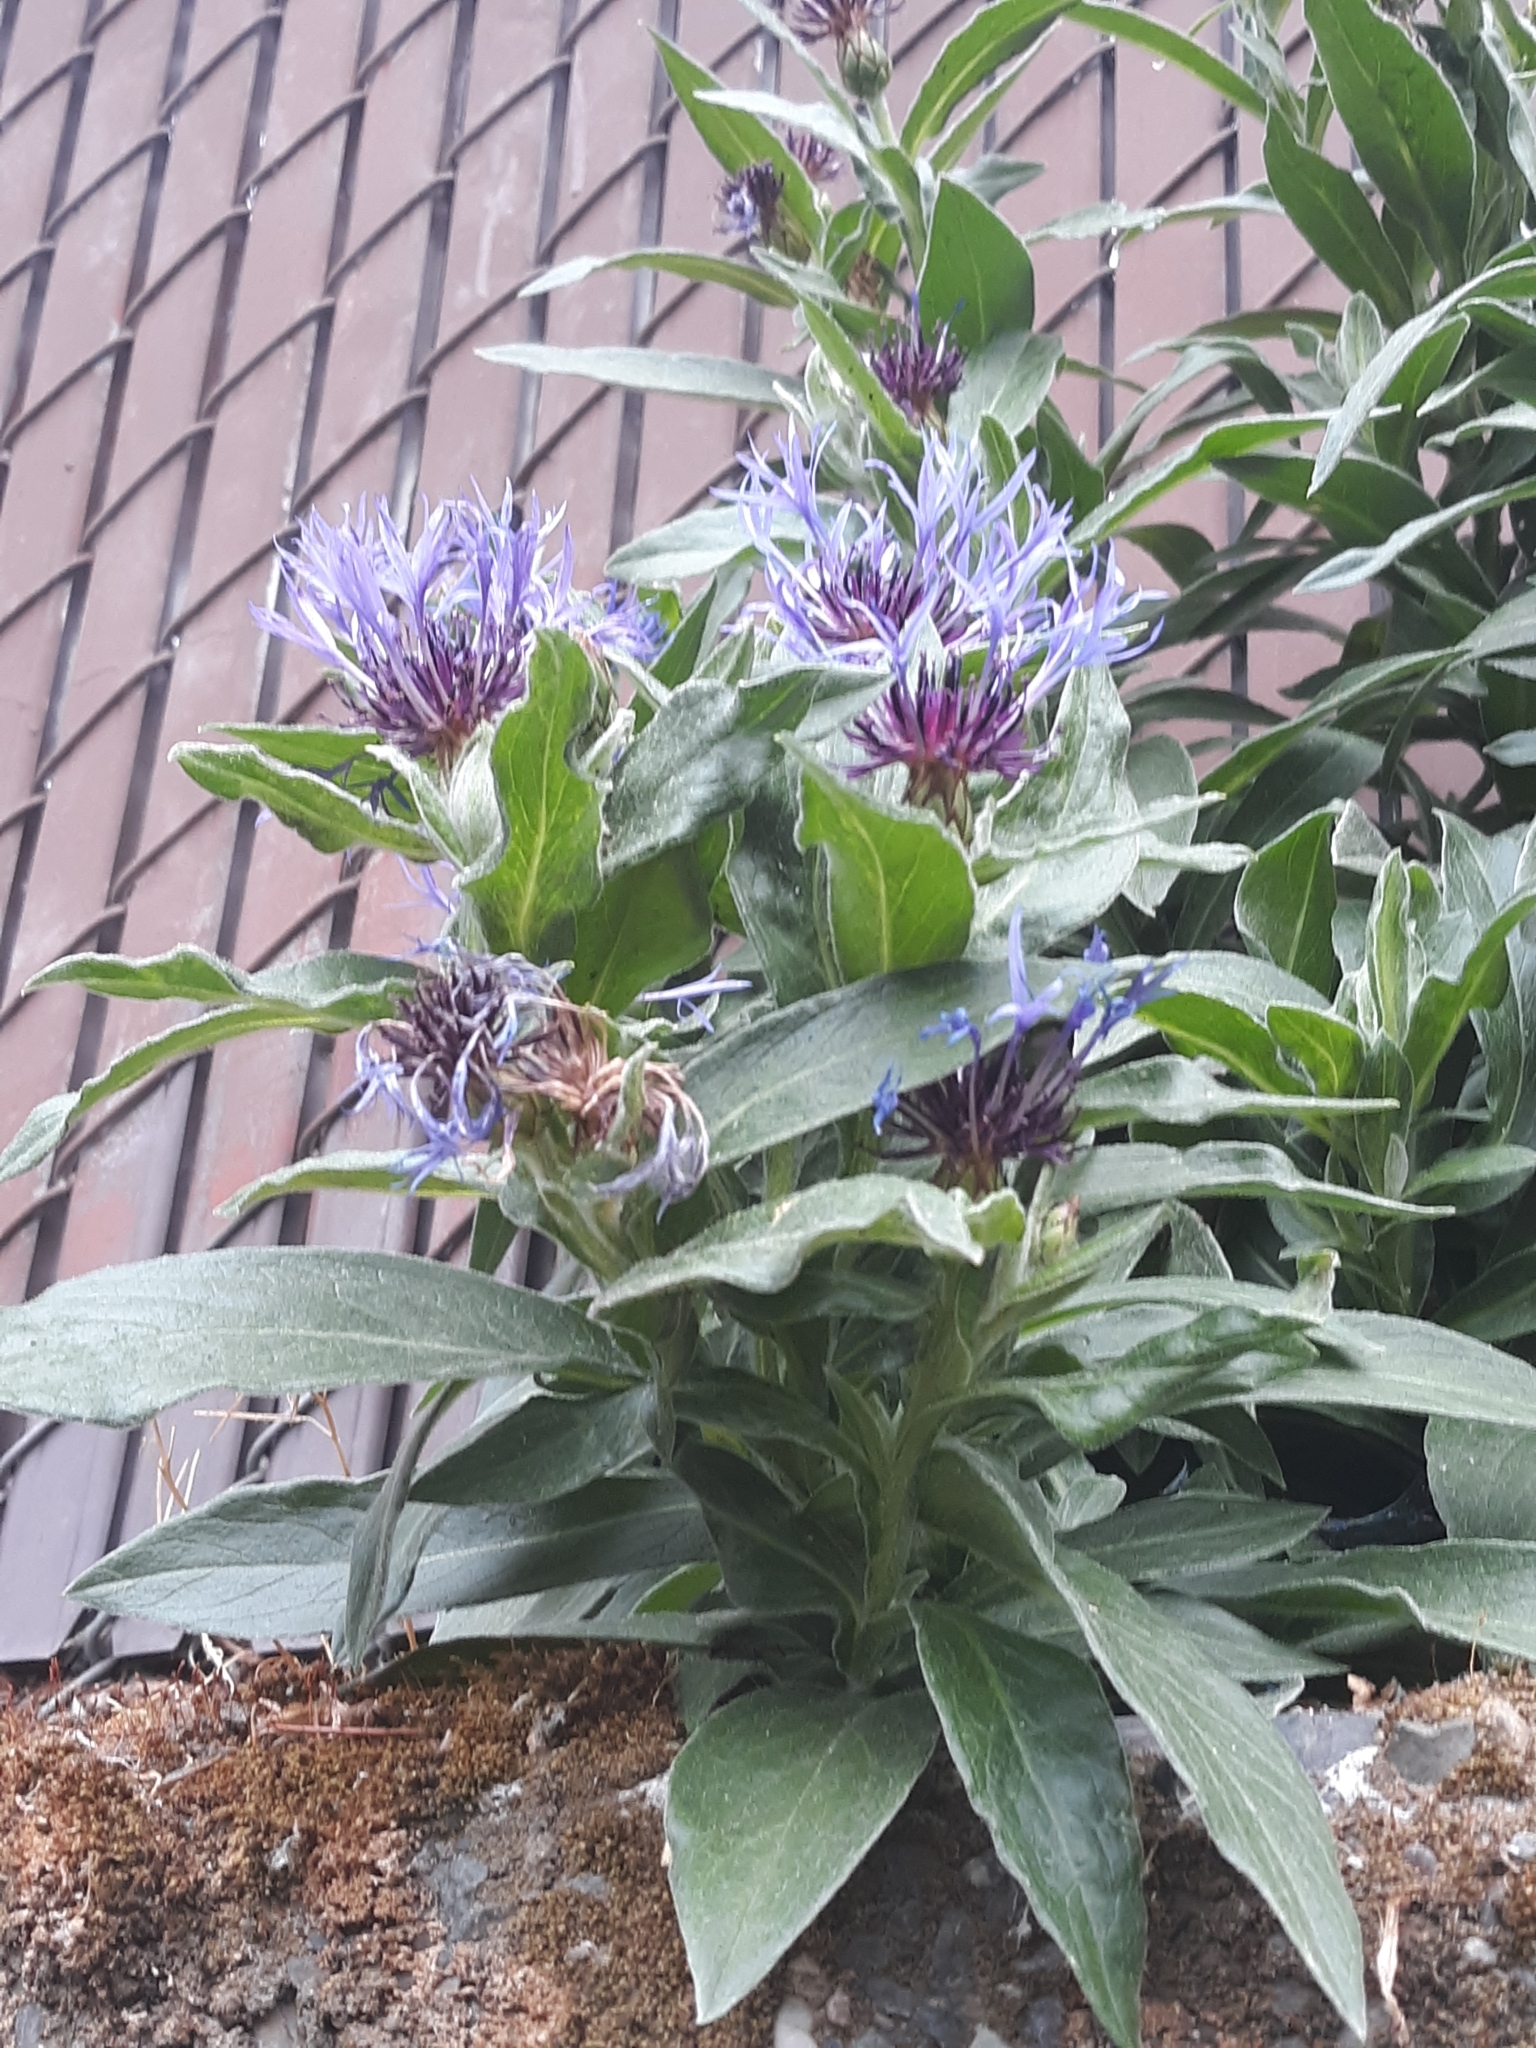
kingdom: Plantae
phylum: Tracheophyta
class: Magnoliopsida
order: Asterales
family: Asteraceae
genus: Centaurea
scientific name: Centaurea montana
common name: Perennial cornflower
